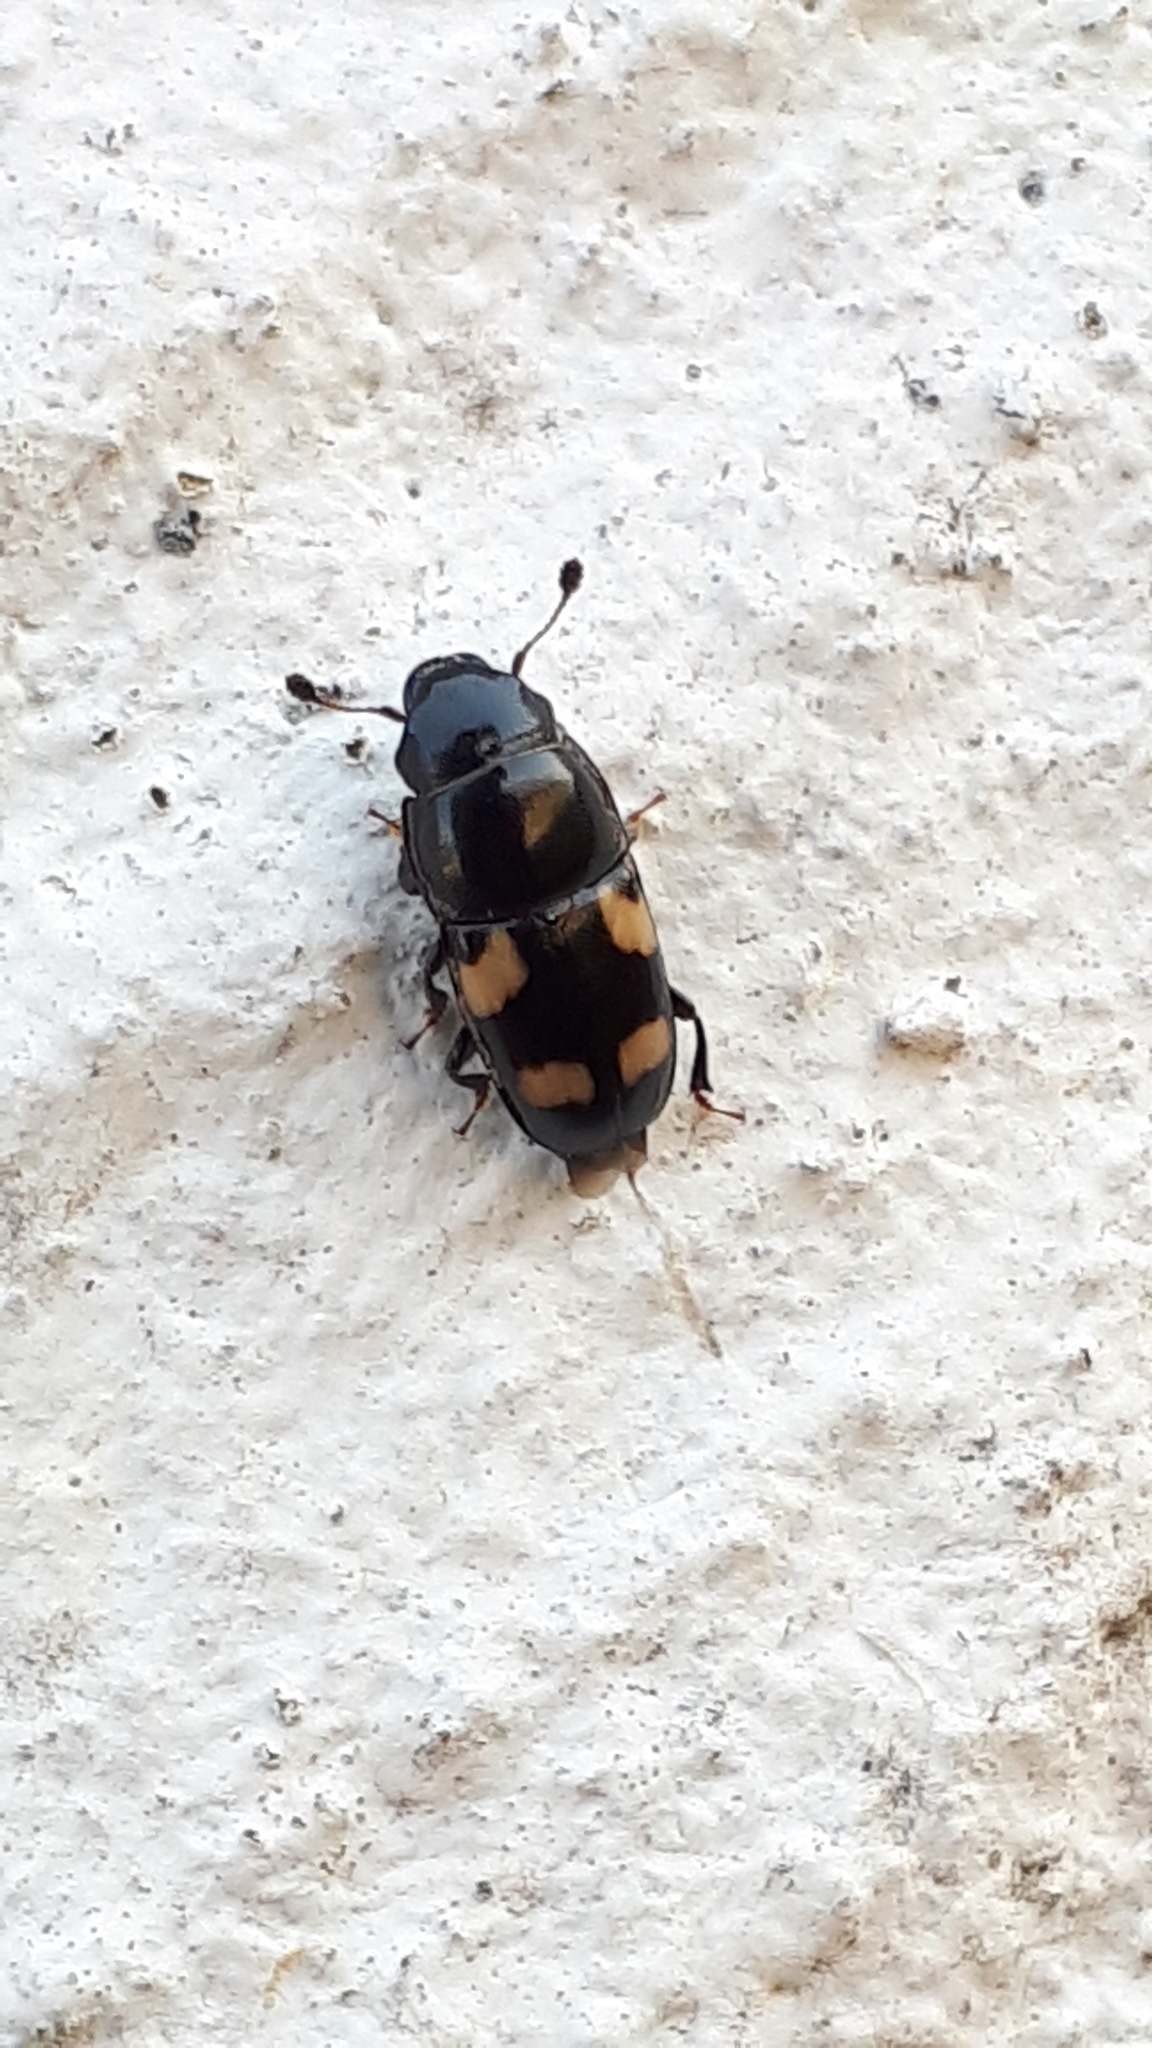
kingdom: Animalia
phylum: Arthropoda
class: Insecta
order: Coleoptera
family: Nitidulidae
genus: Glischrochilus
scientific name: Glischrochilus quadrisignatus
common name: Picnic beetle
